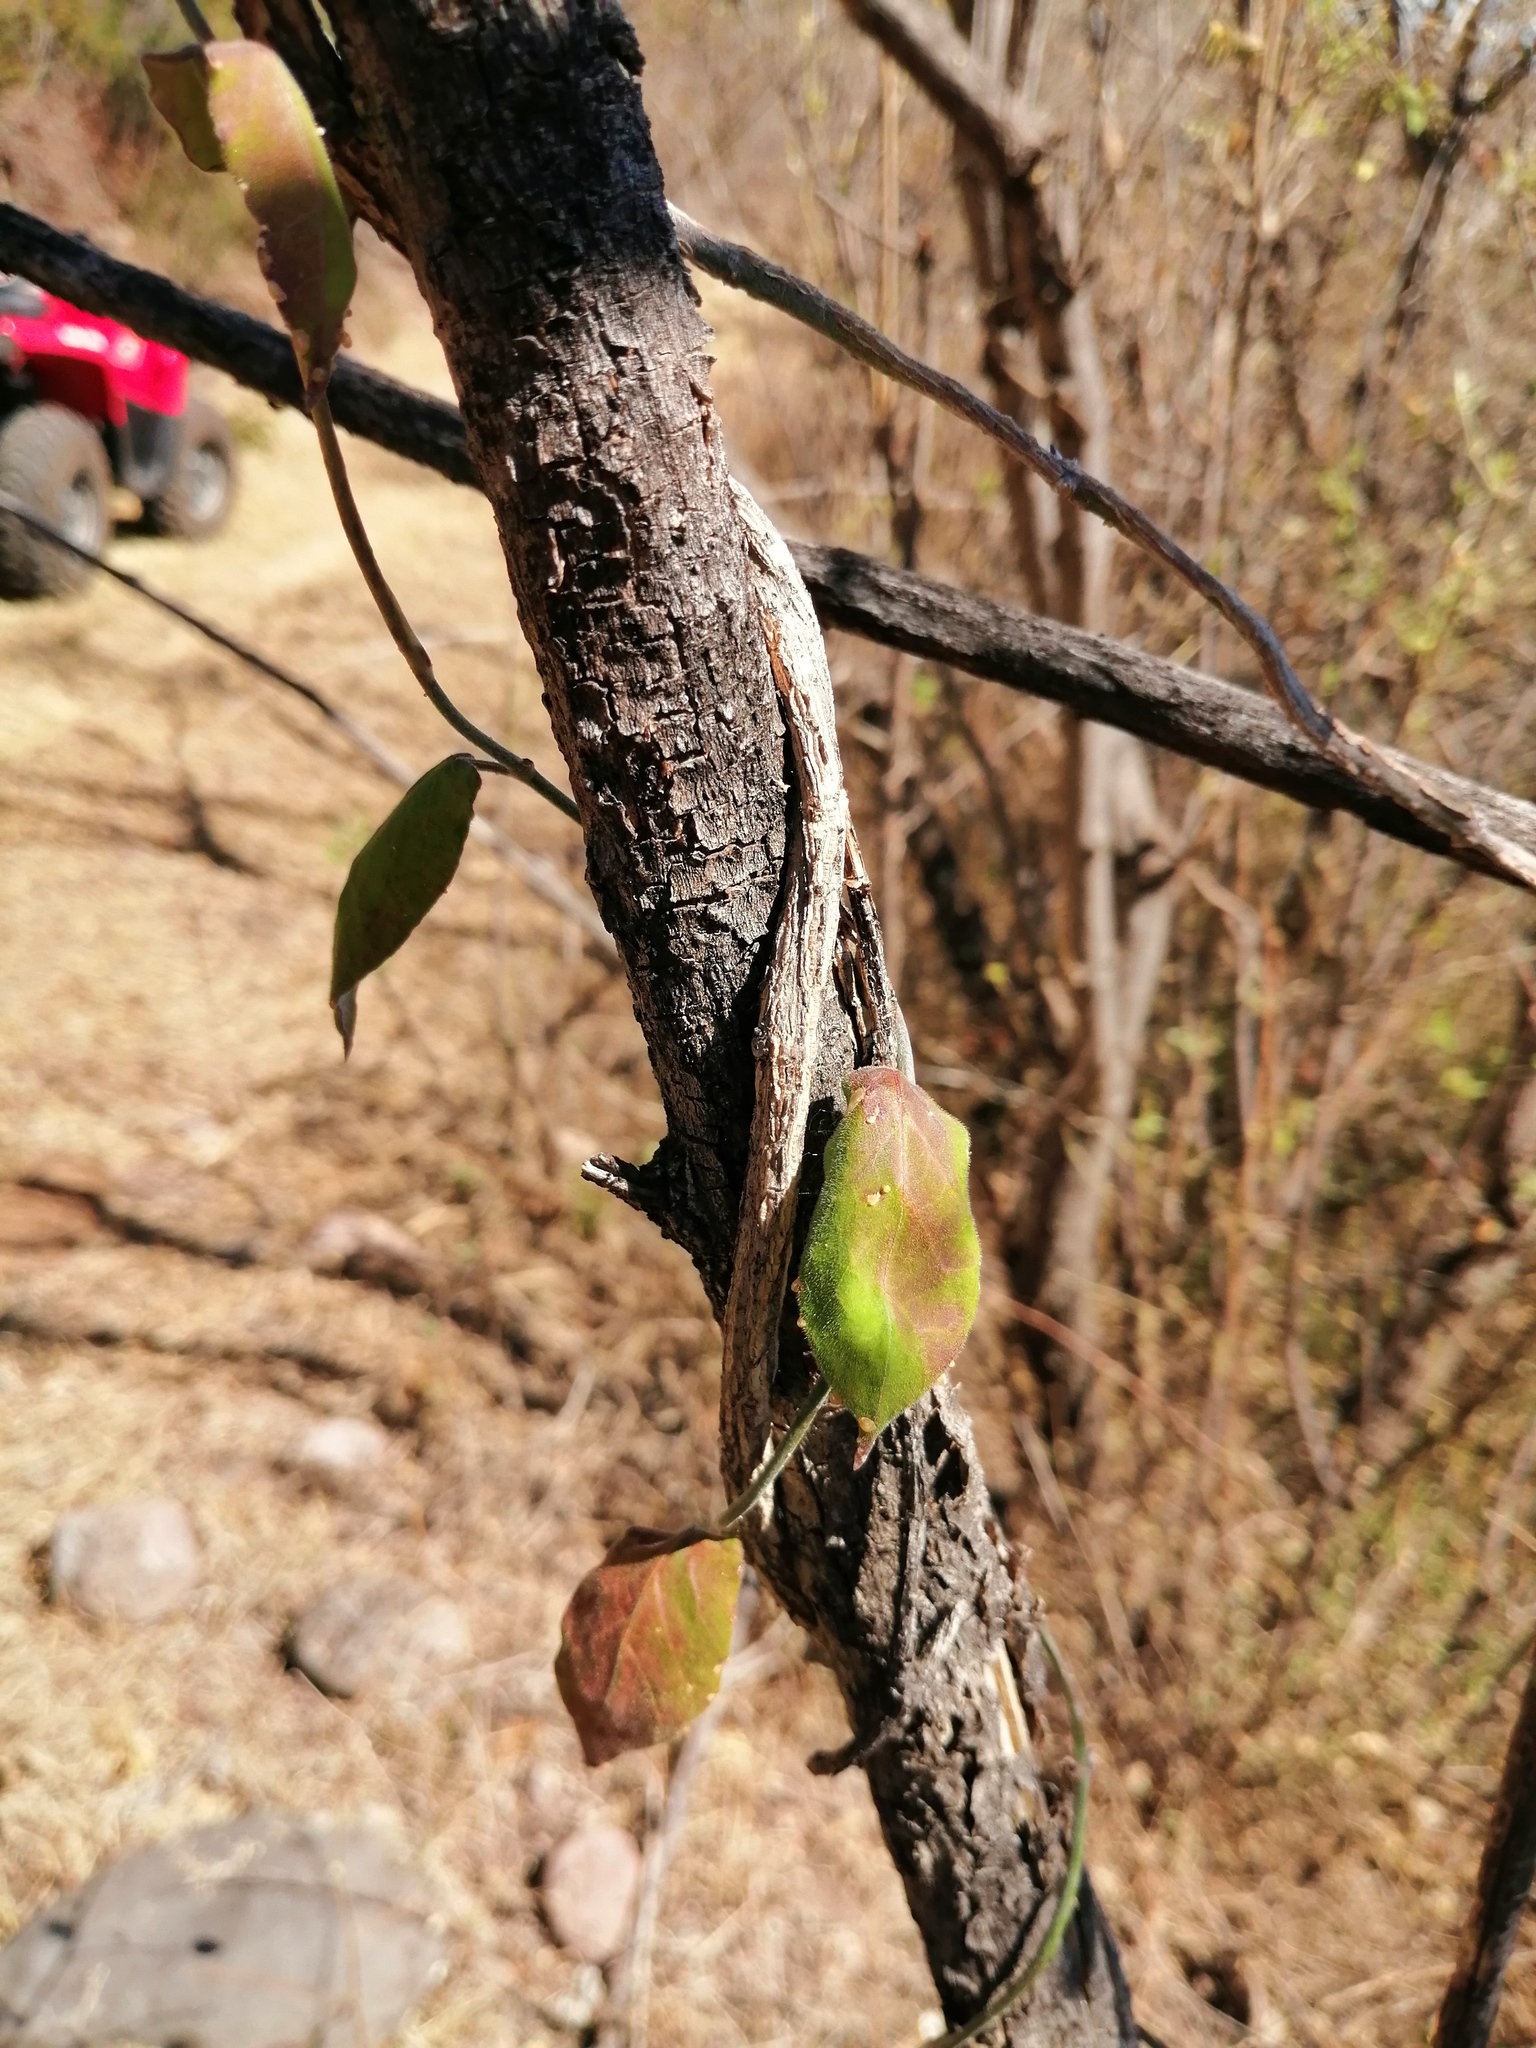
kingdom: Plantae
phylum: Tracheophyta
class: Magnoliopsida
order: Gentianales
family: Apocynaceae
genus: Funastrum
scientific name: Funastrum pannosum
